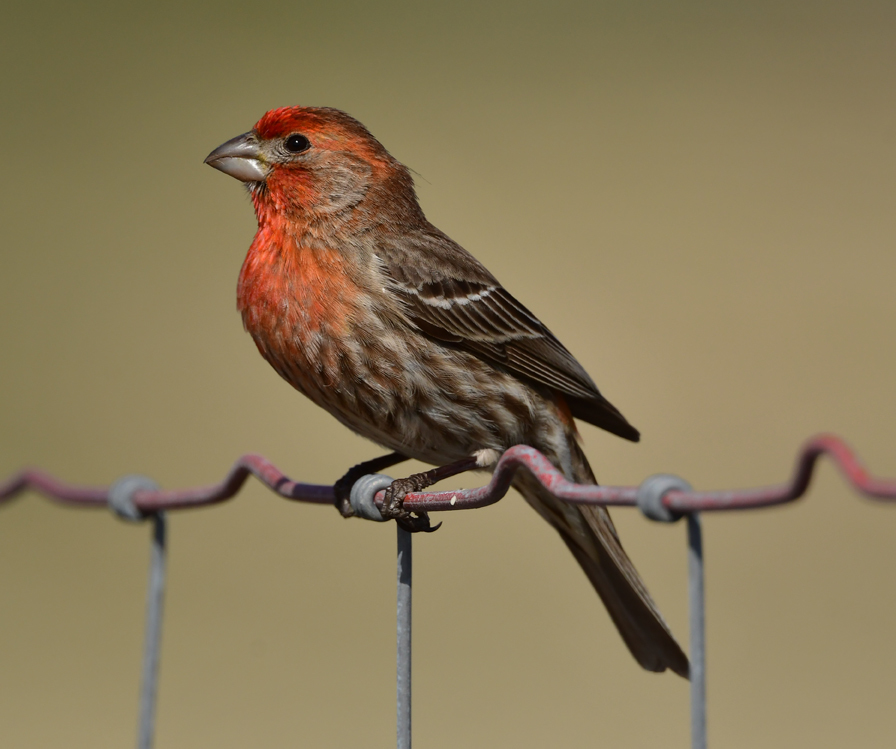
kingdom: Animalia
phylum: Chordata
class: Aves
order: Passeriformes
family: Fringillidae
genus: Haemorhous
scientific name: Haemorhous mexicanus
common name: House finch
